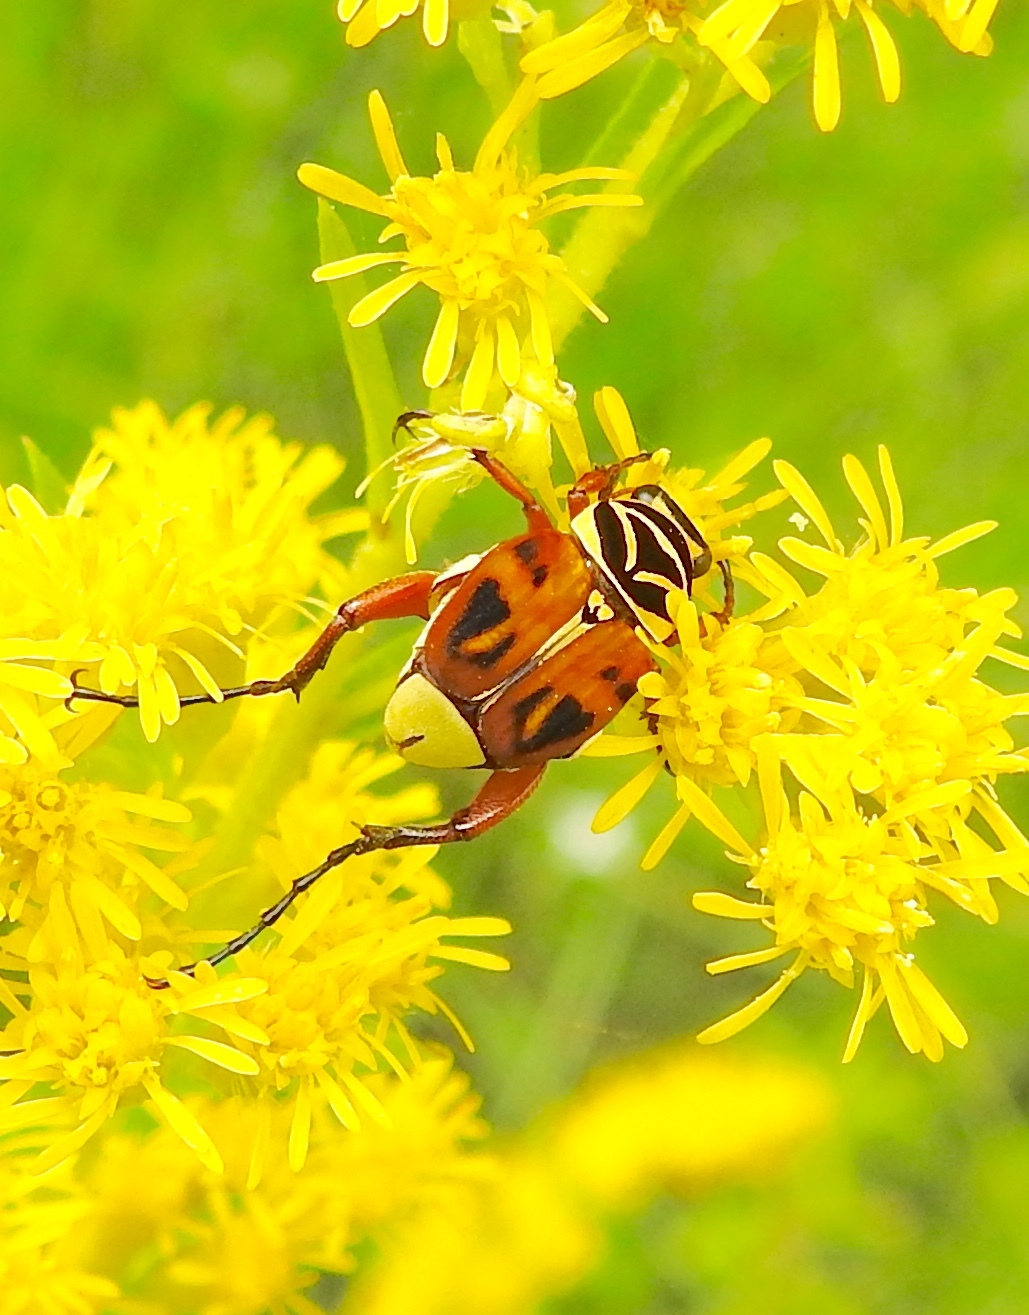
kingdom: Animalia
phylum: Arthropoda
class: Insecta
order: Coleoptera
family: Scarabaeidae
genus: Trigonopeltastes
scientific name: Trigonopeltastes delta
